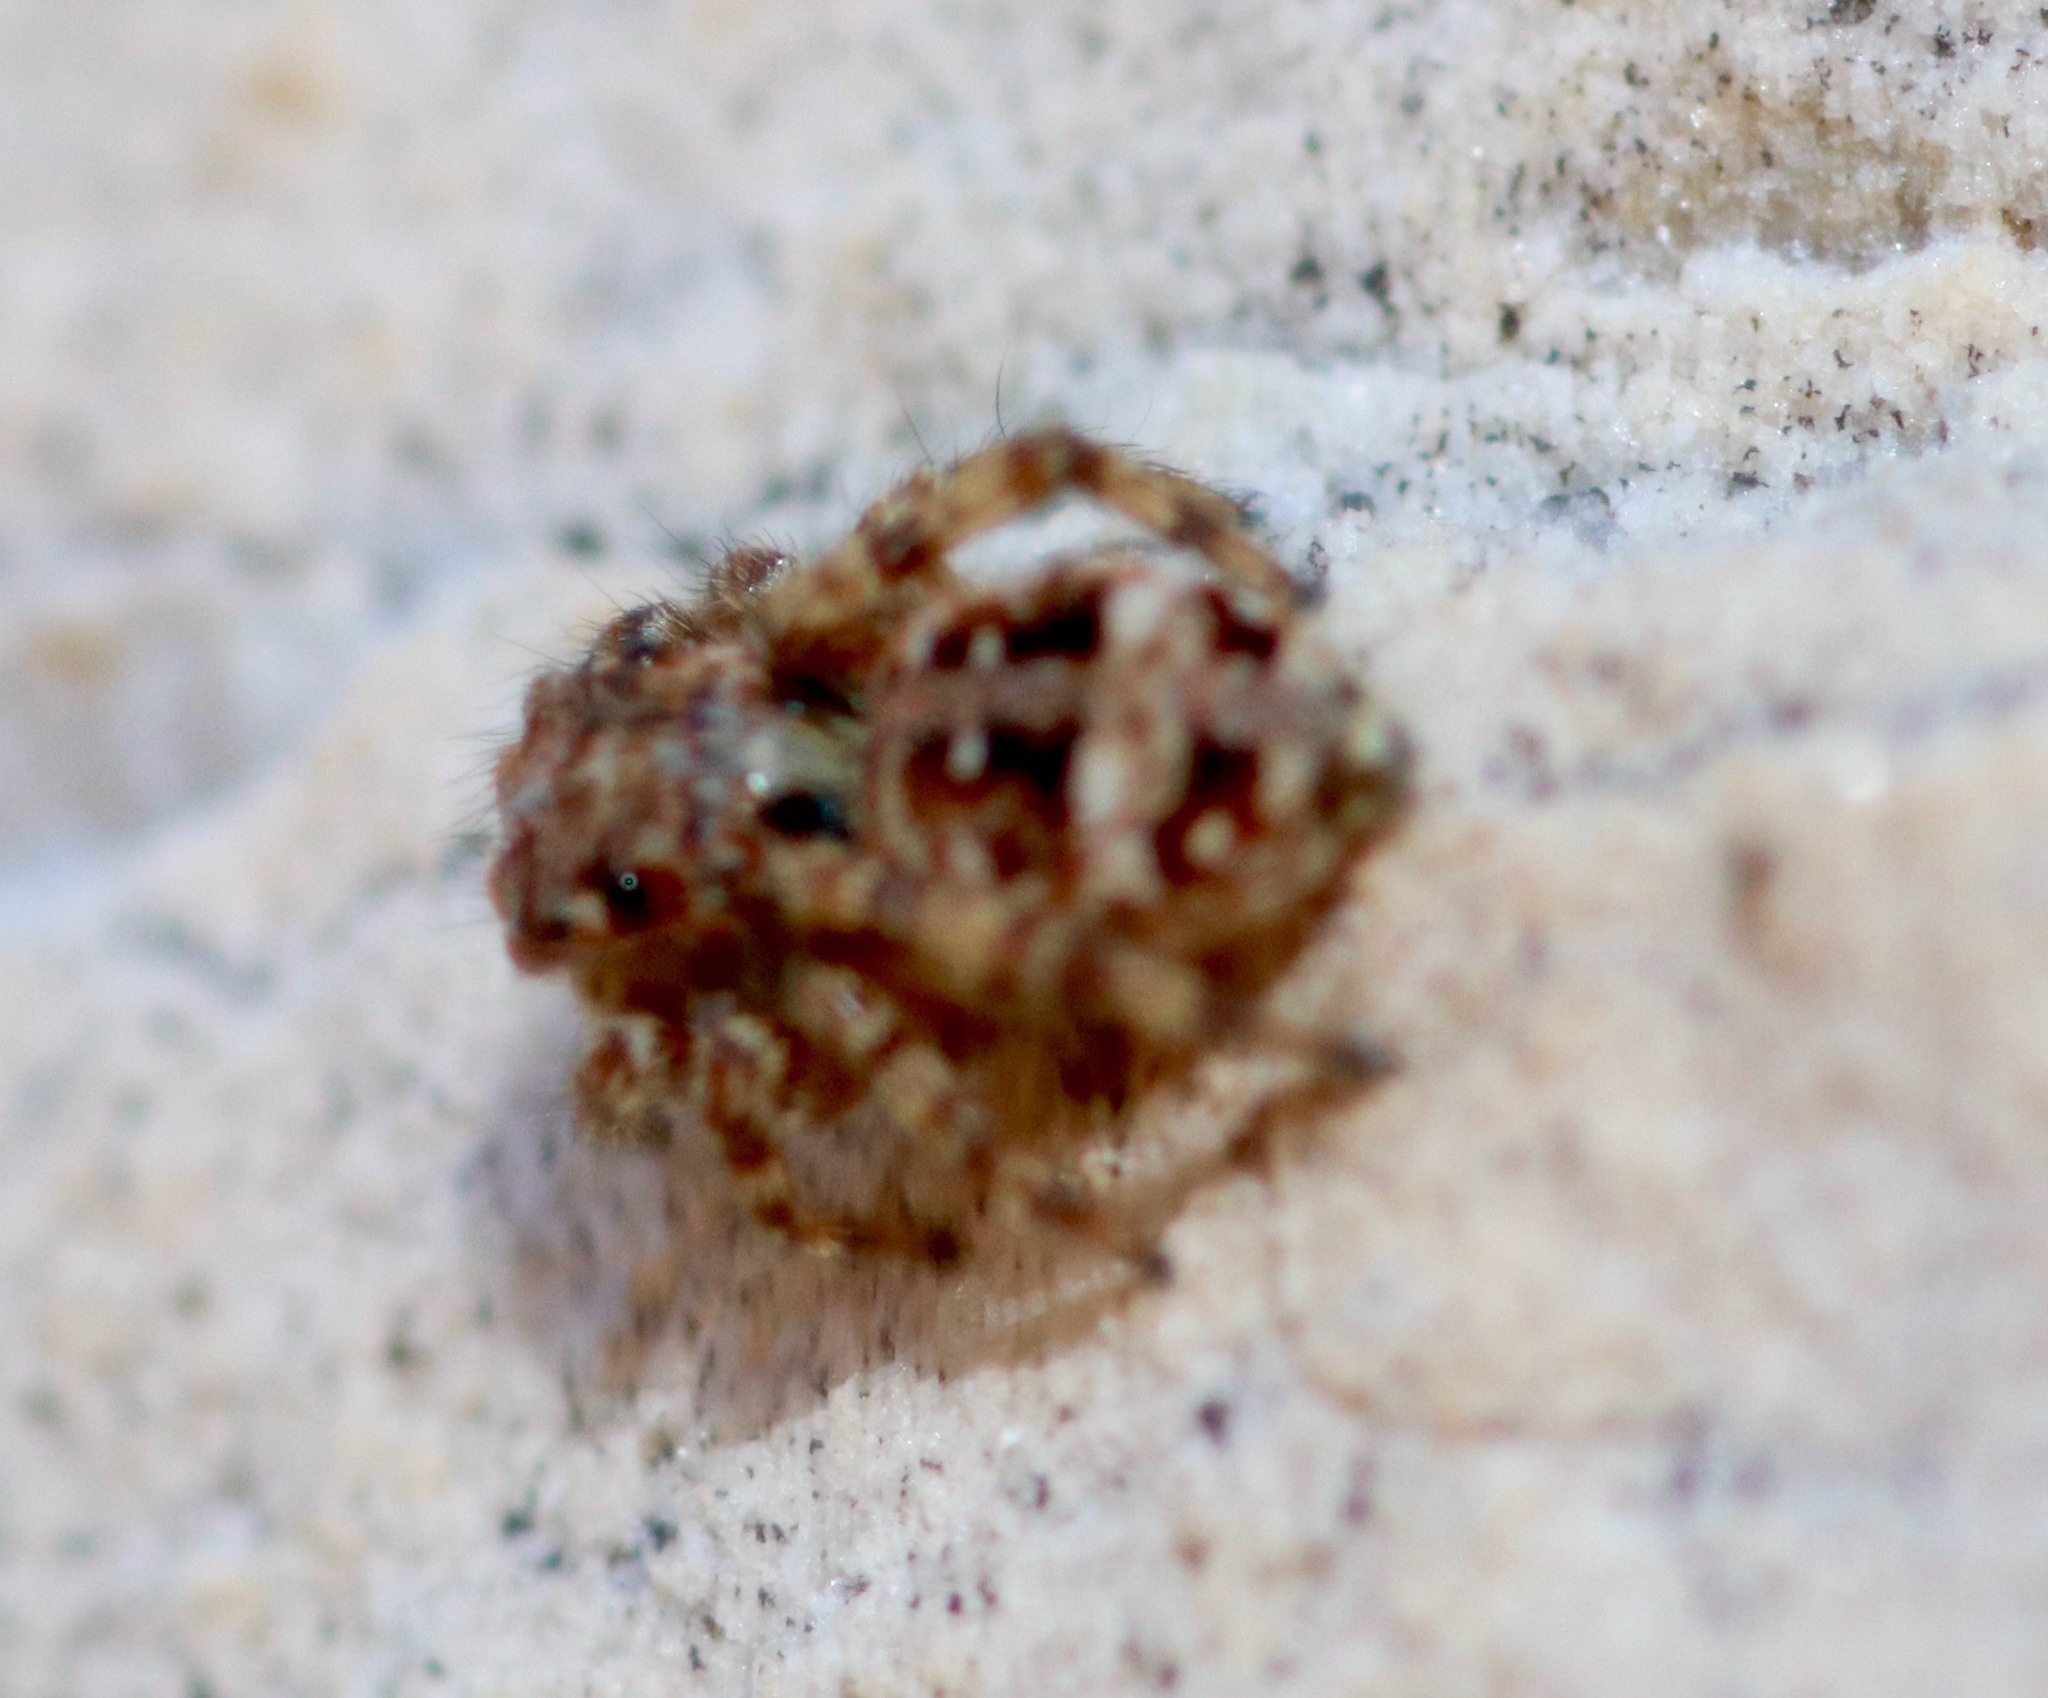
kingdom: Animalia
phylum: Arthropoda
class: Arachnida
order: Araneae
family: Salticidae
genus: Attulus
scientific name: Attulus fasciger
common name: Asiatic wall jumping spider
